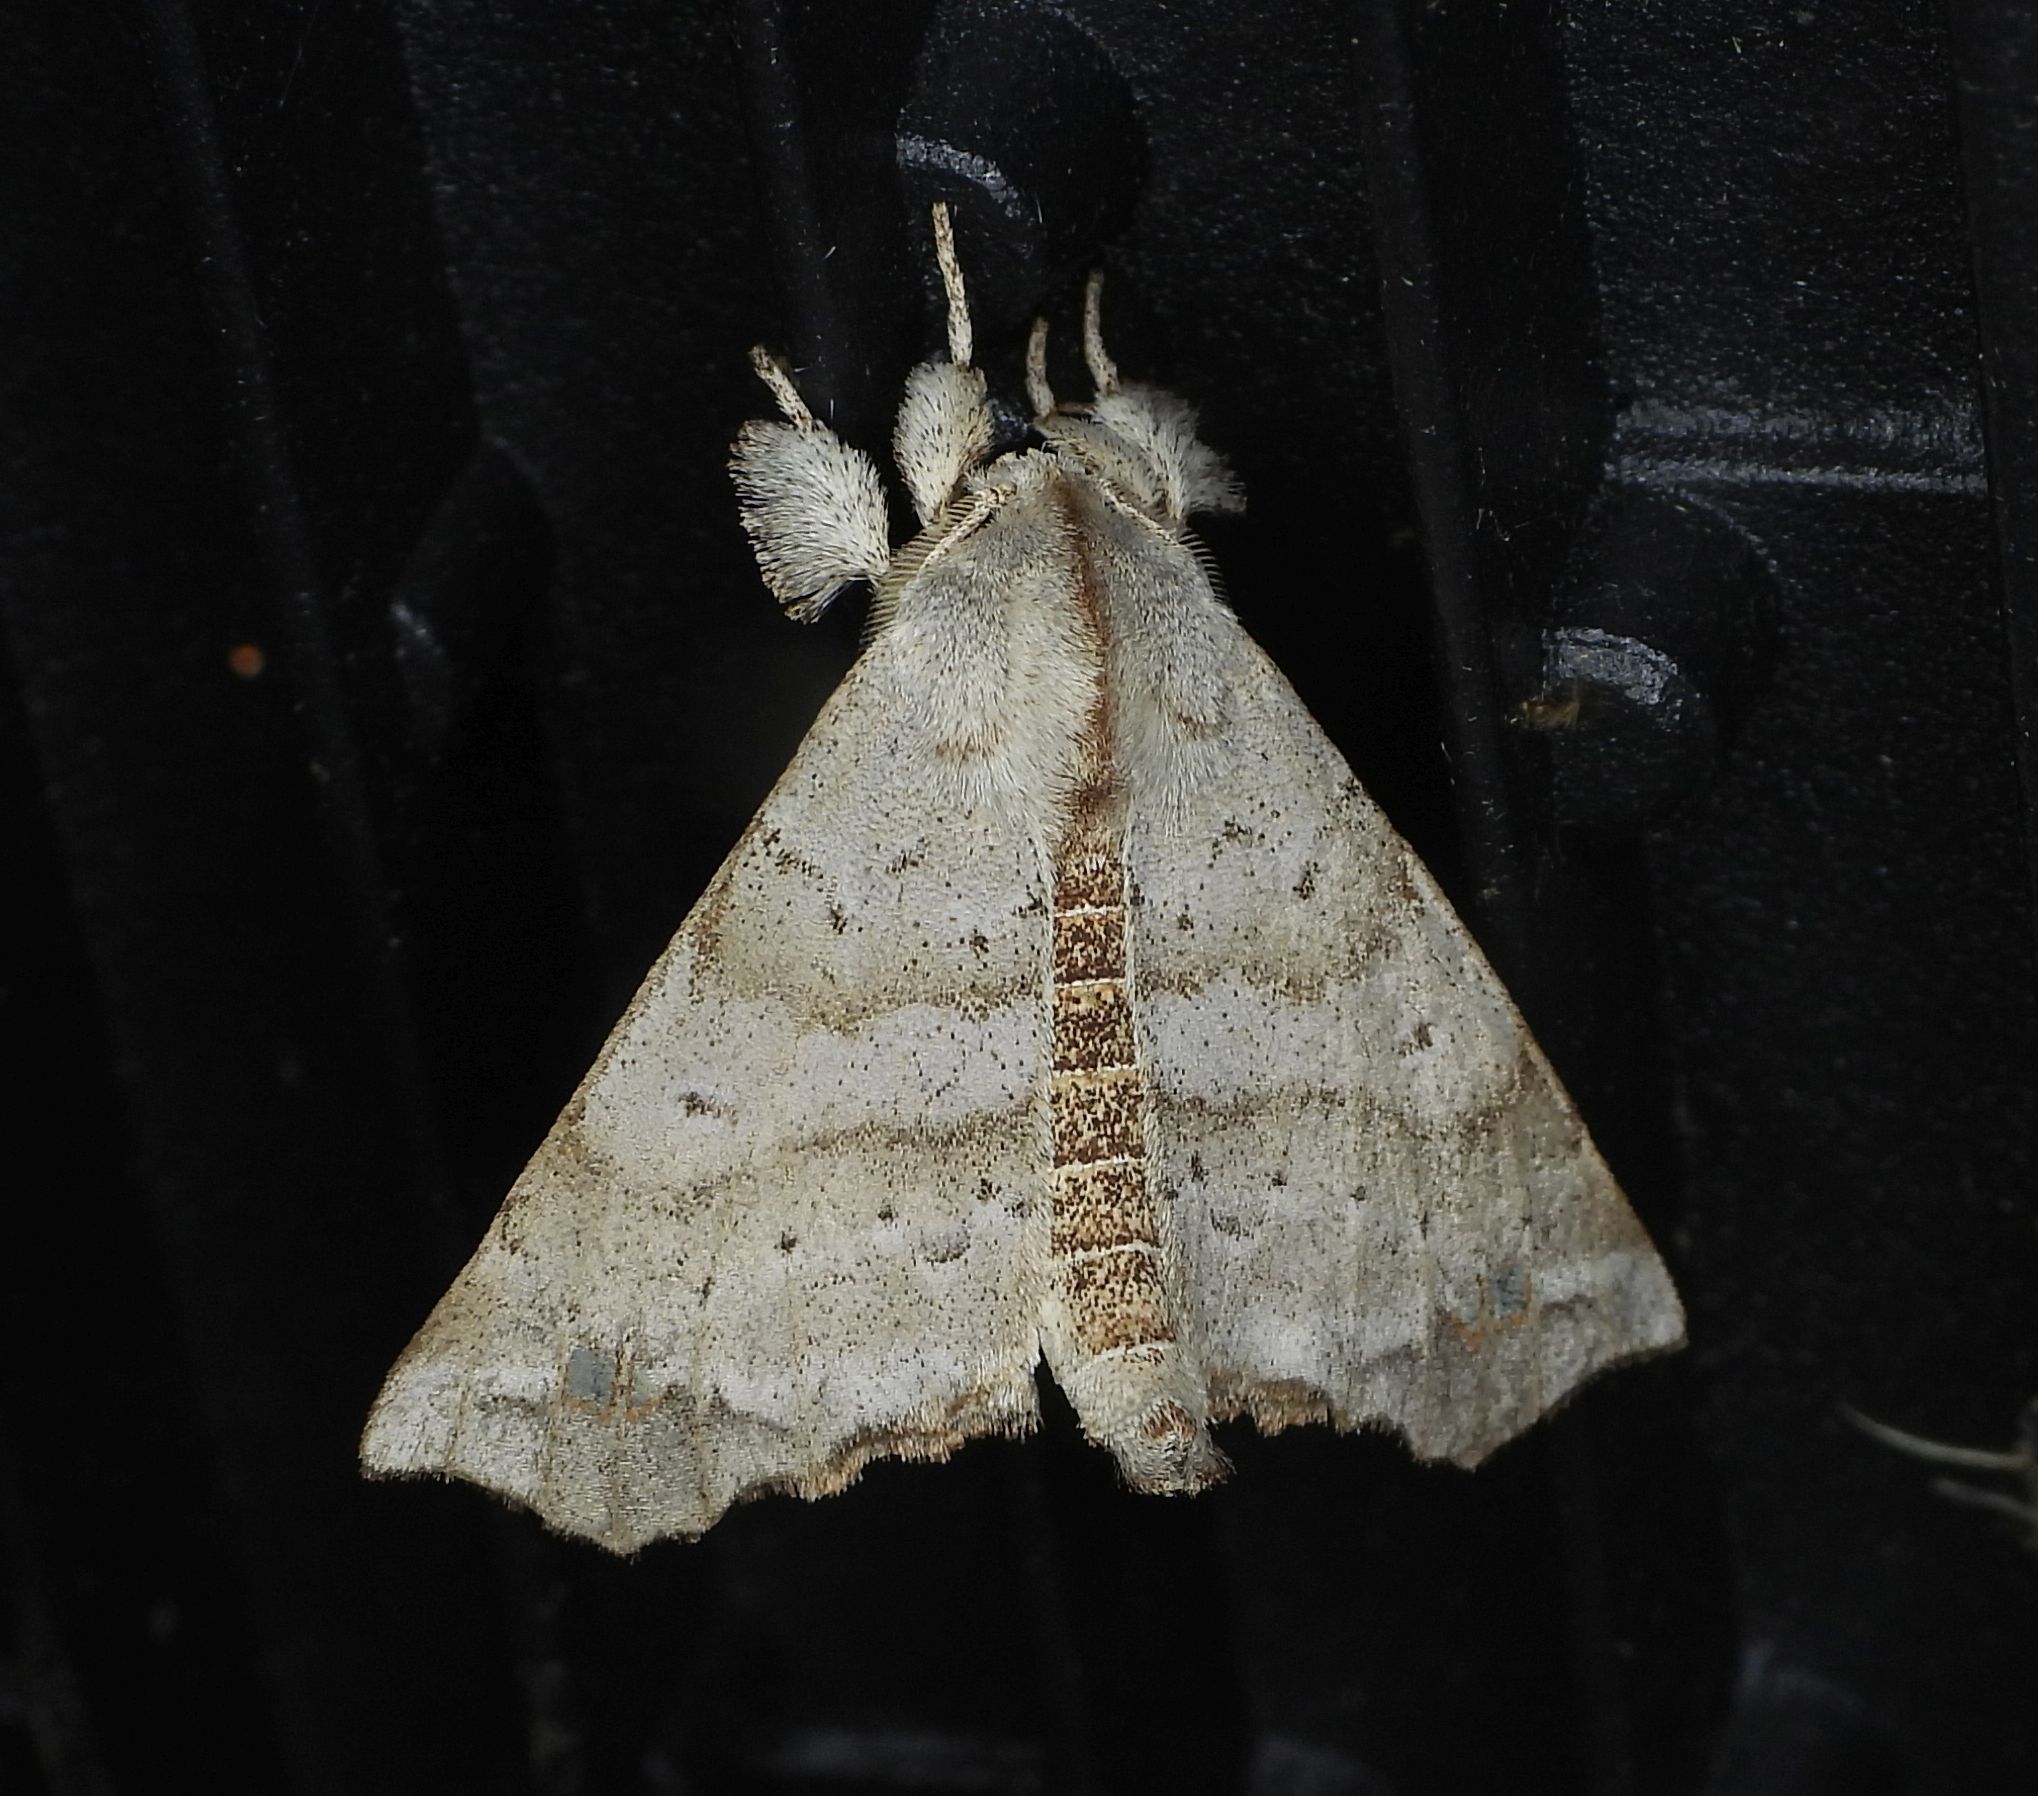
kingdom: Animalia
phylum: Arthropoda
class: Insecta
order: Lepidoptera
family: Apatelodidae
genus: Olceclostera
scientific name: Olceclostera angelica
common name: Angel moth
